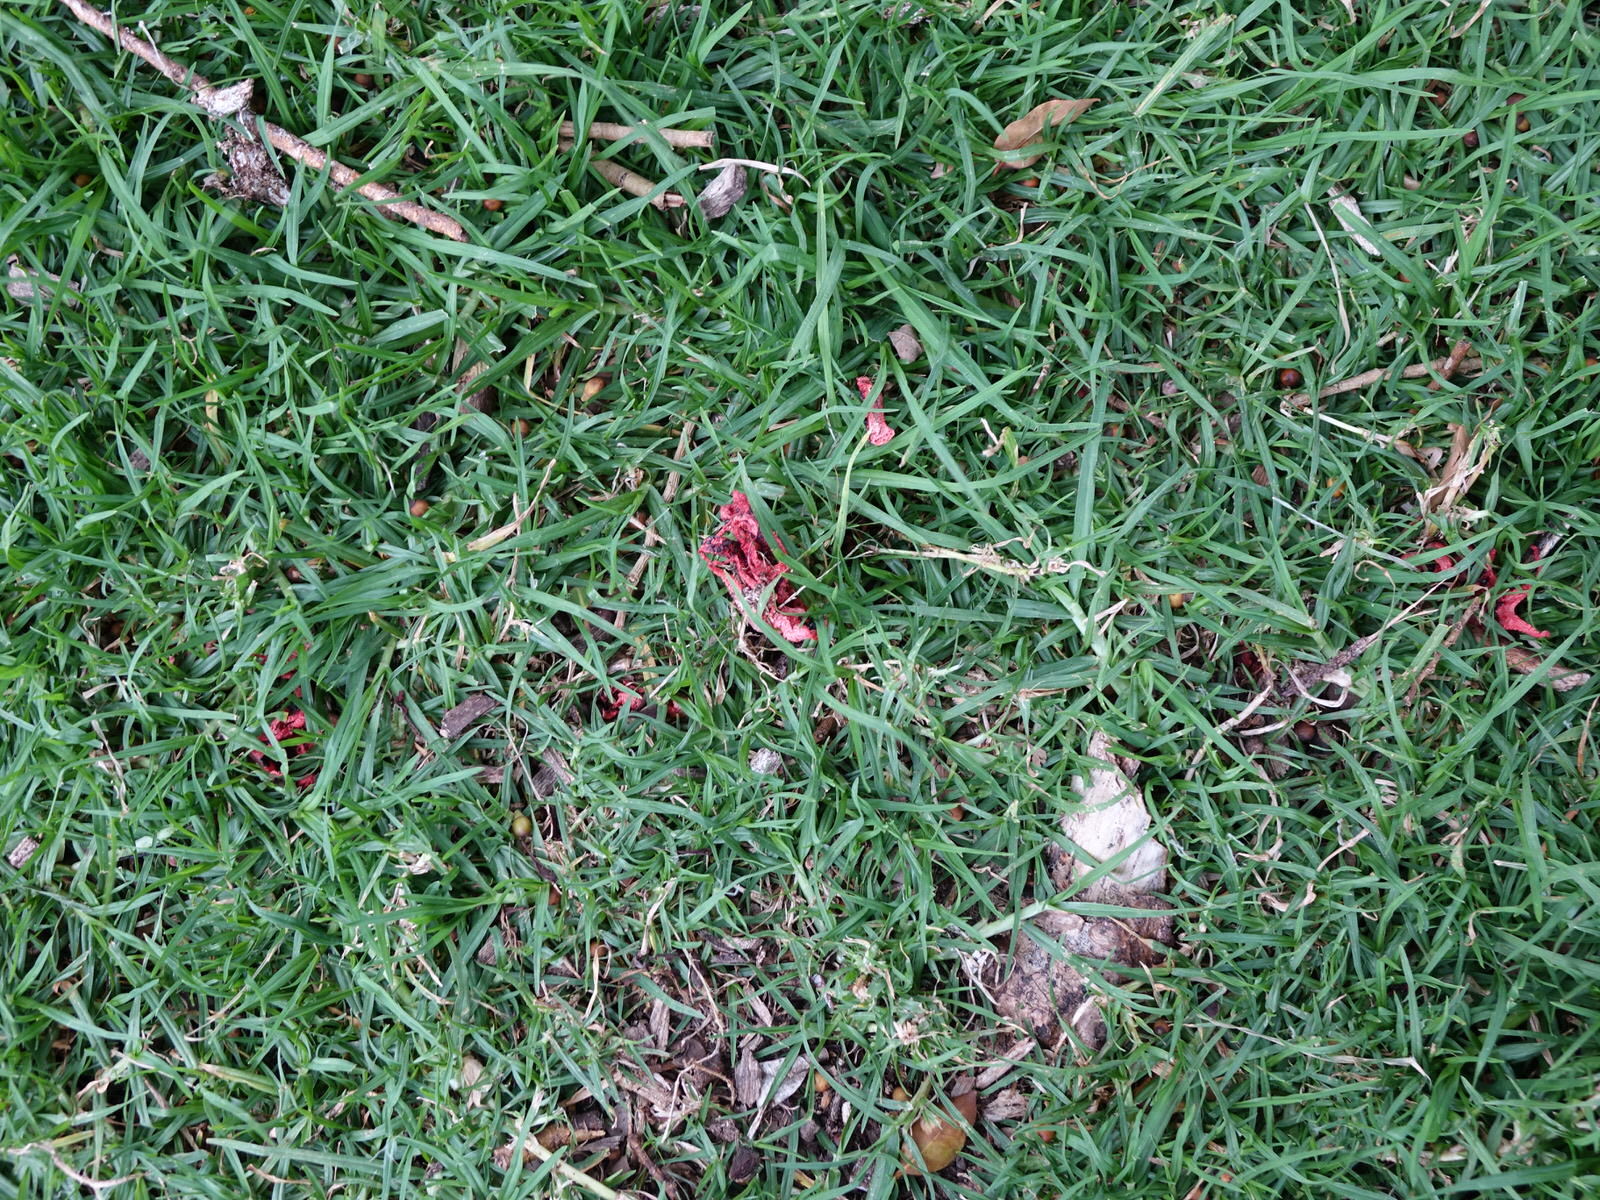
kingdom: Fungi
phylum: Basidiomycota
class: Agaricomycetes
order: Phallales
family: Phallaceae
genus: Clathrus
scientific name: Clathrus archeri
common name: Devil's fingers
